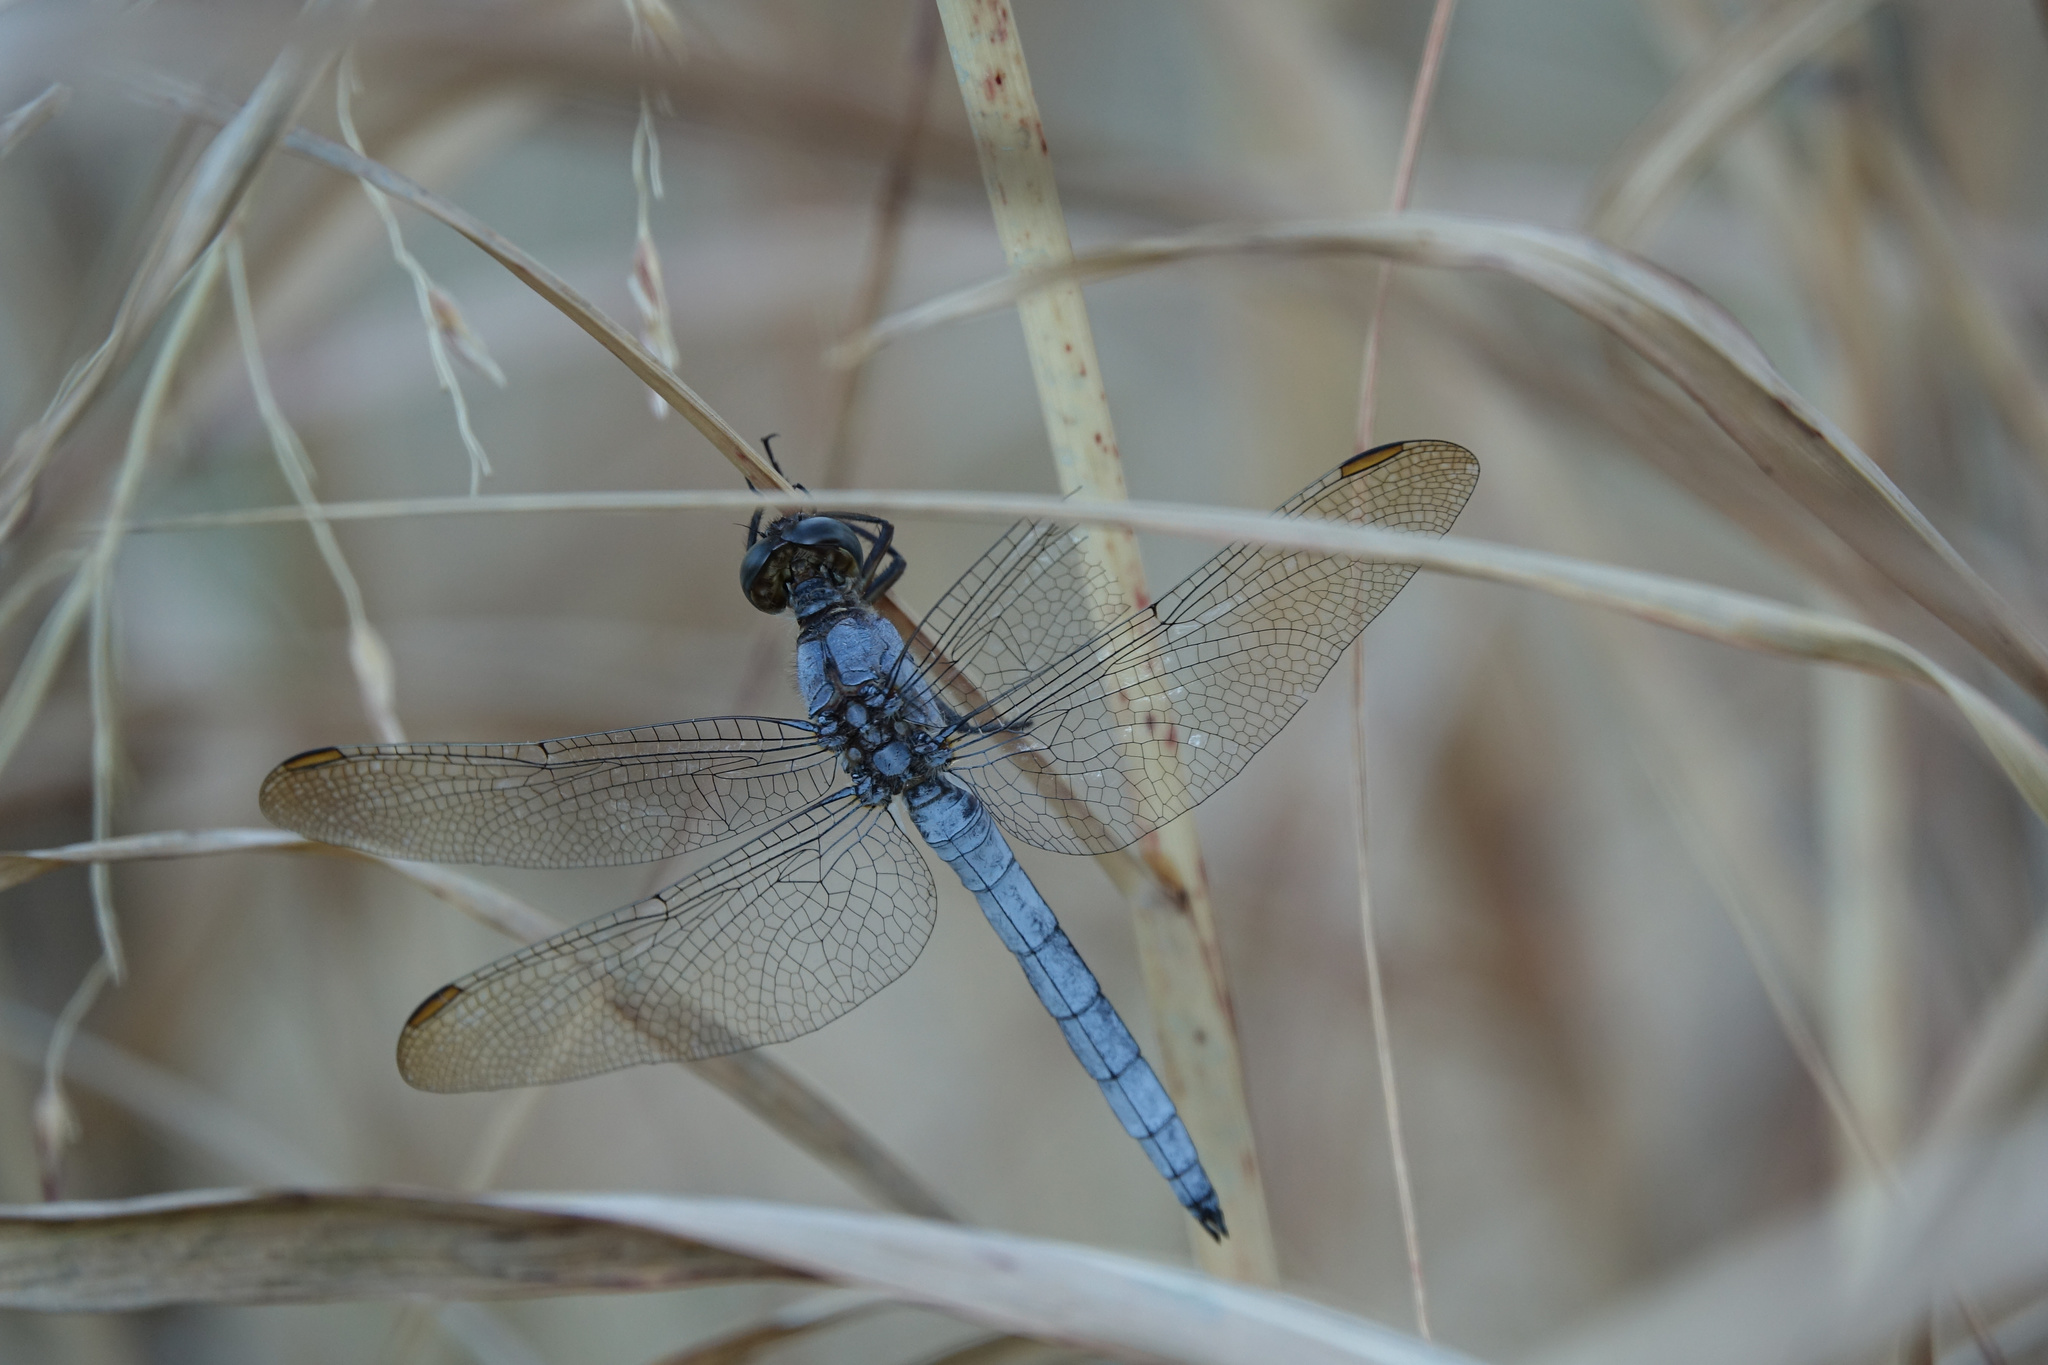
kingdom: Animalia
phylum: Arthropoda
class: Insecta
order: Odonata
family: Libellulidae
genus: Orthetrum
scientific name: Orthetrum coerulescens
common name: Keeled skimmer
